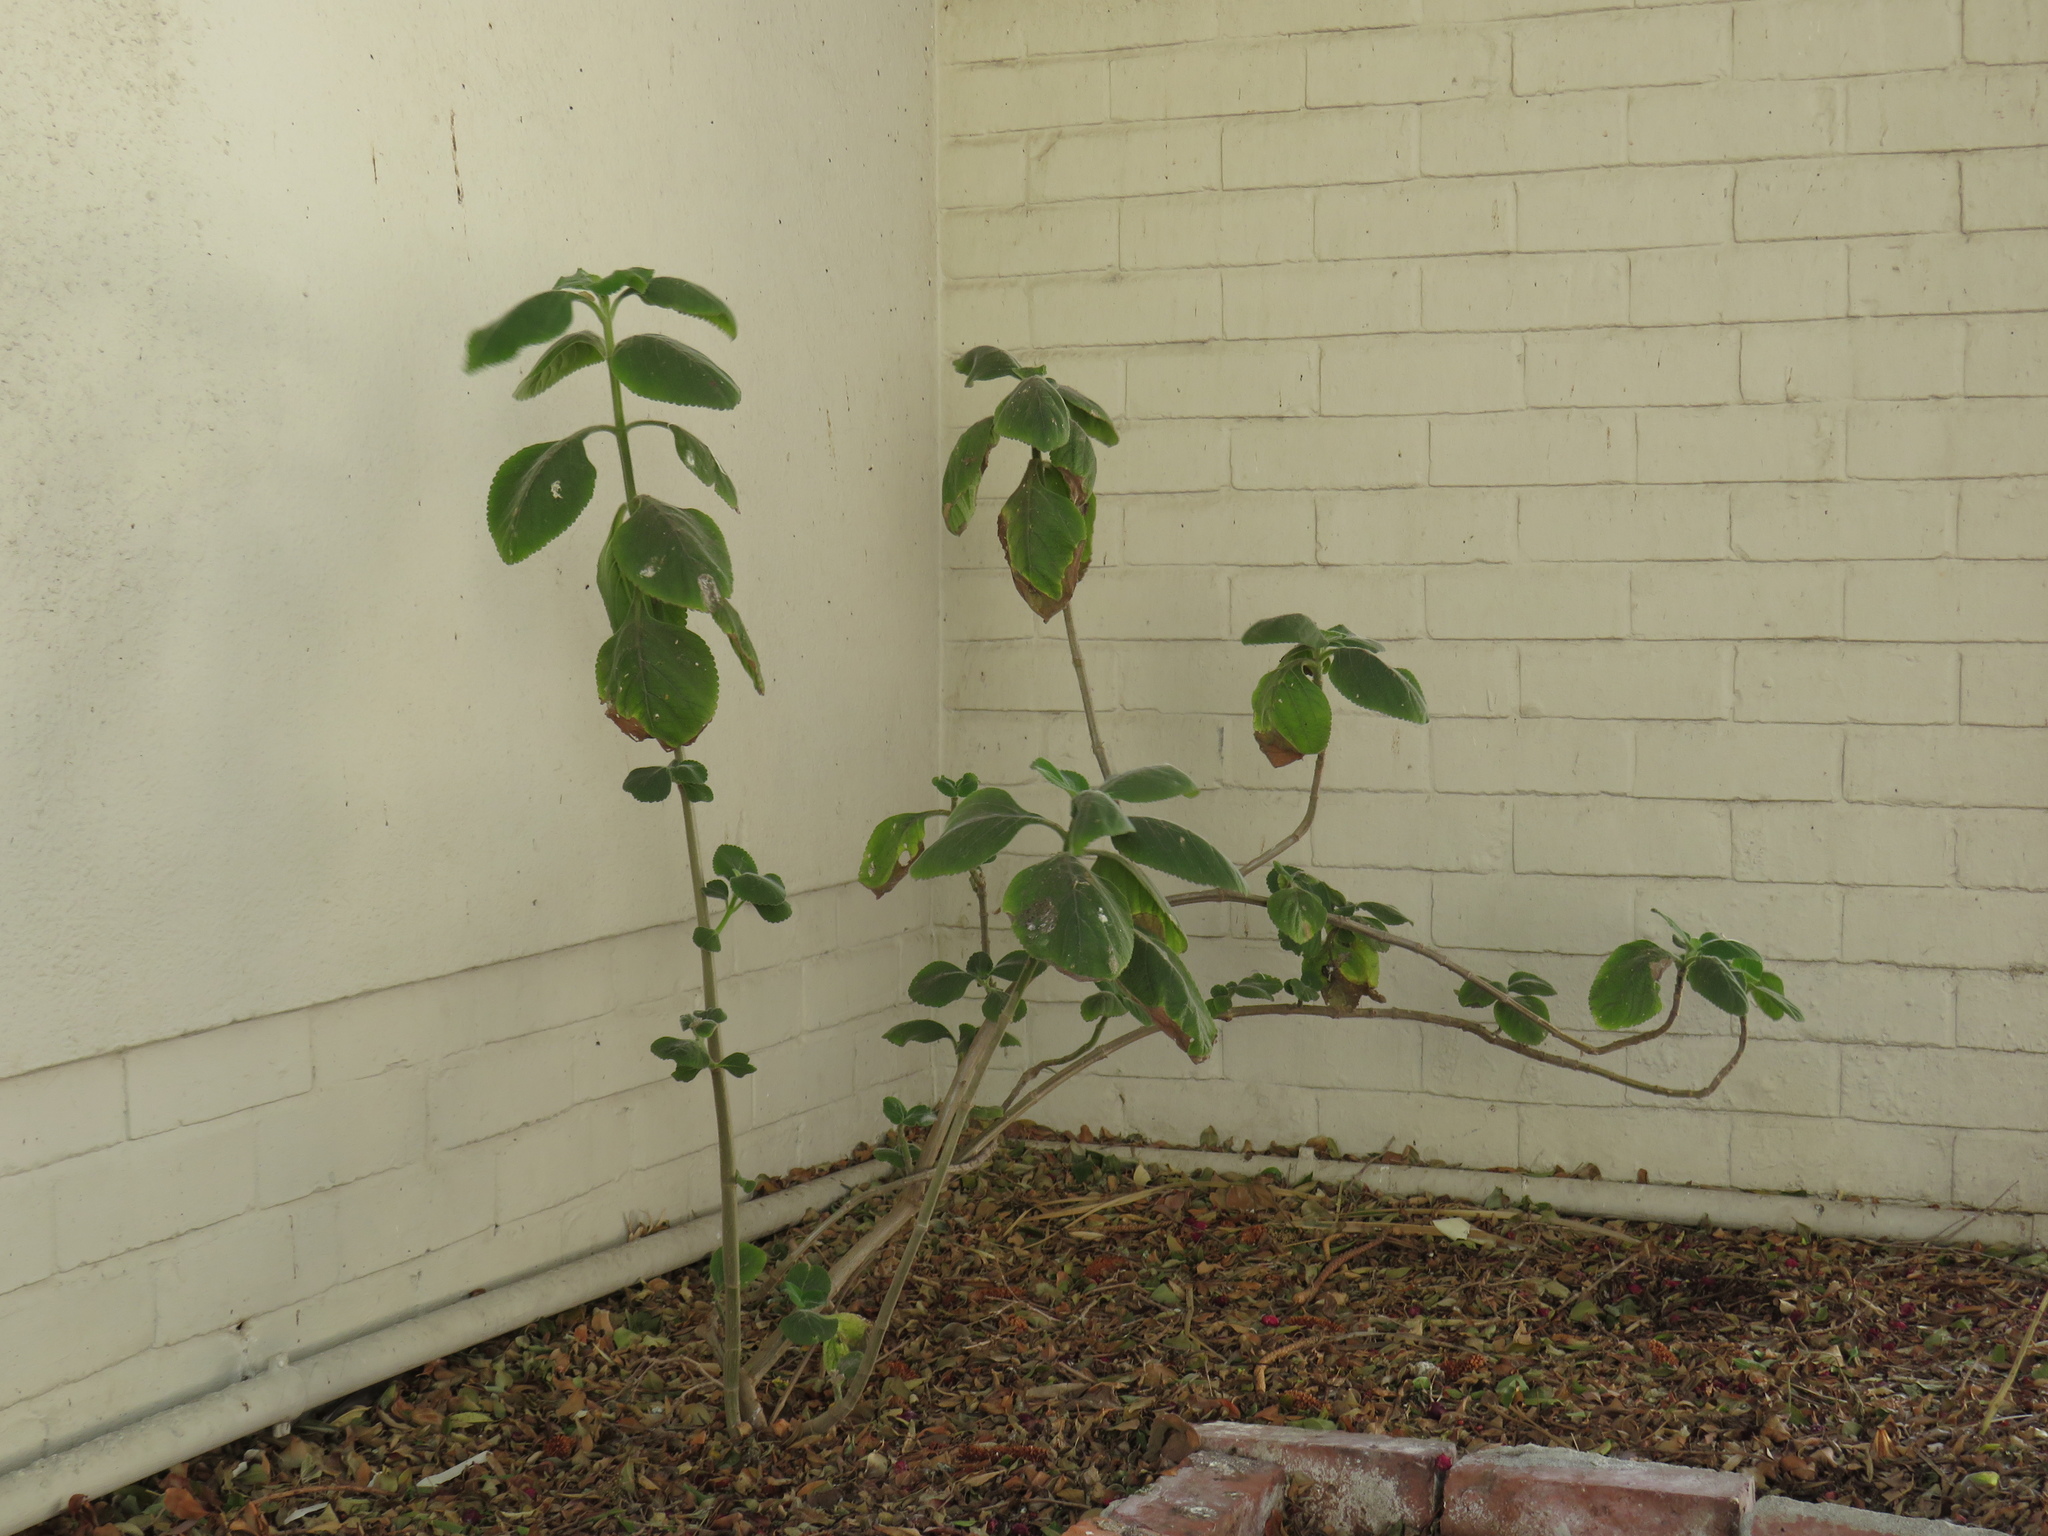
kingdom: Plantae
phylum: Tracheophyta
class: Magnoliopsida
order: Lamiales
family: Lamiaceae
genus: Coleus
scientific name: Coleus barbatus
